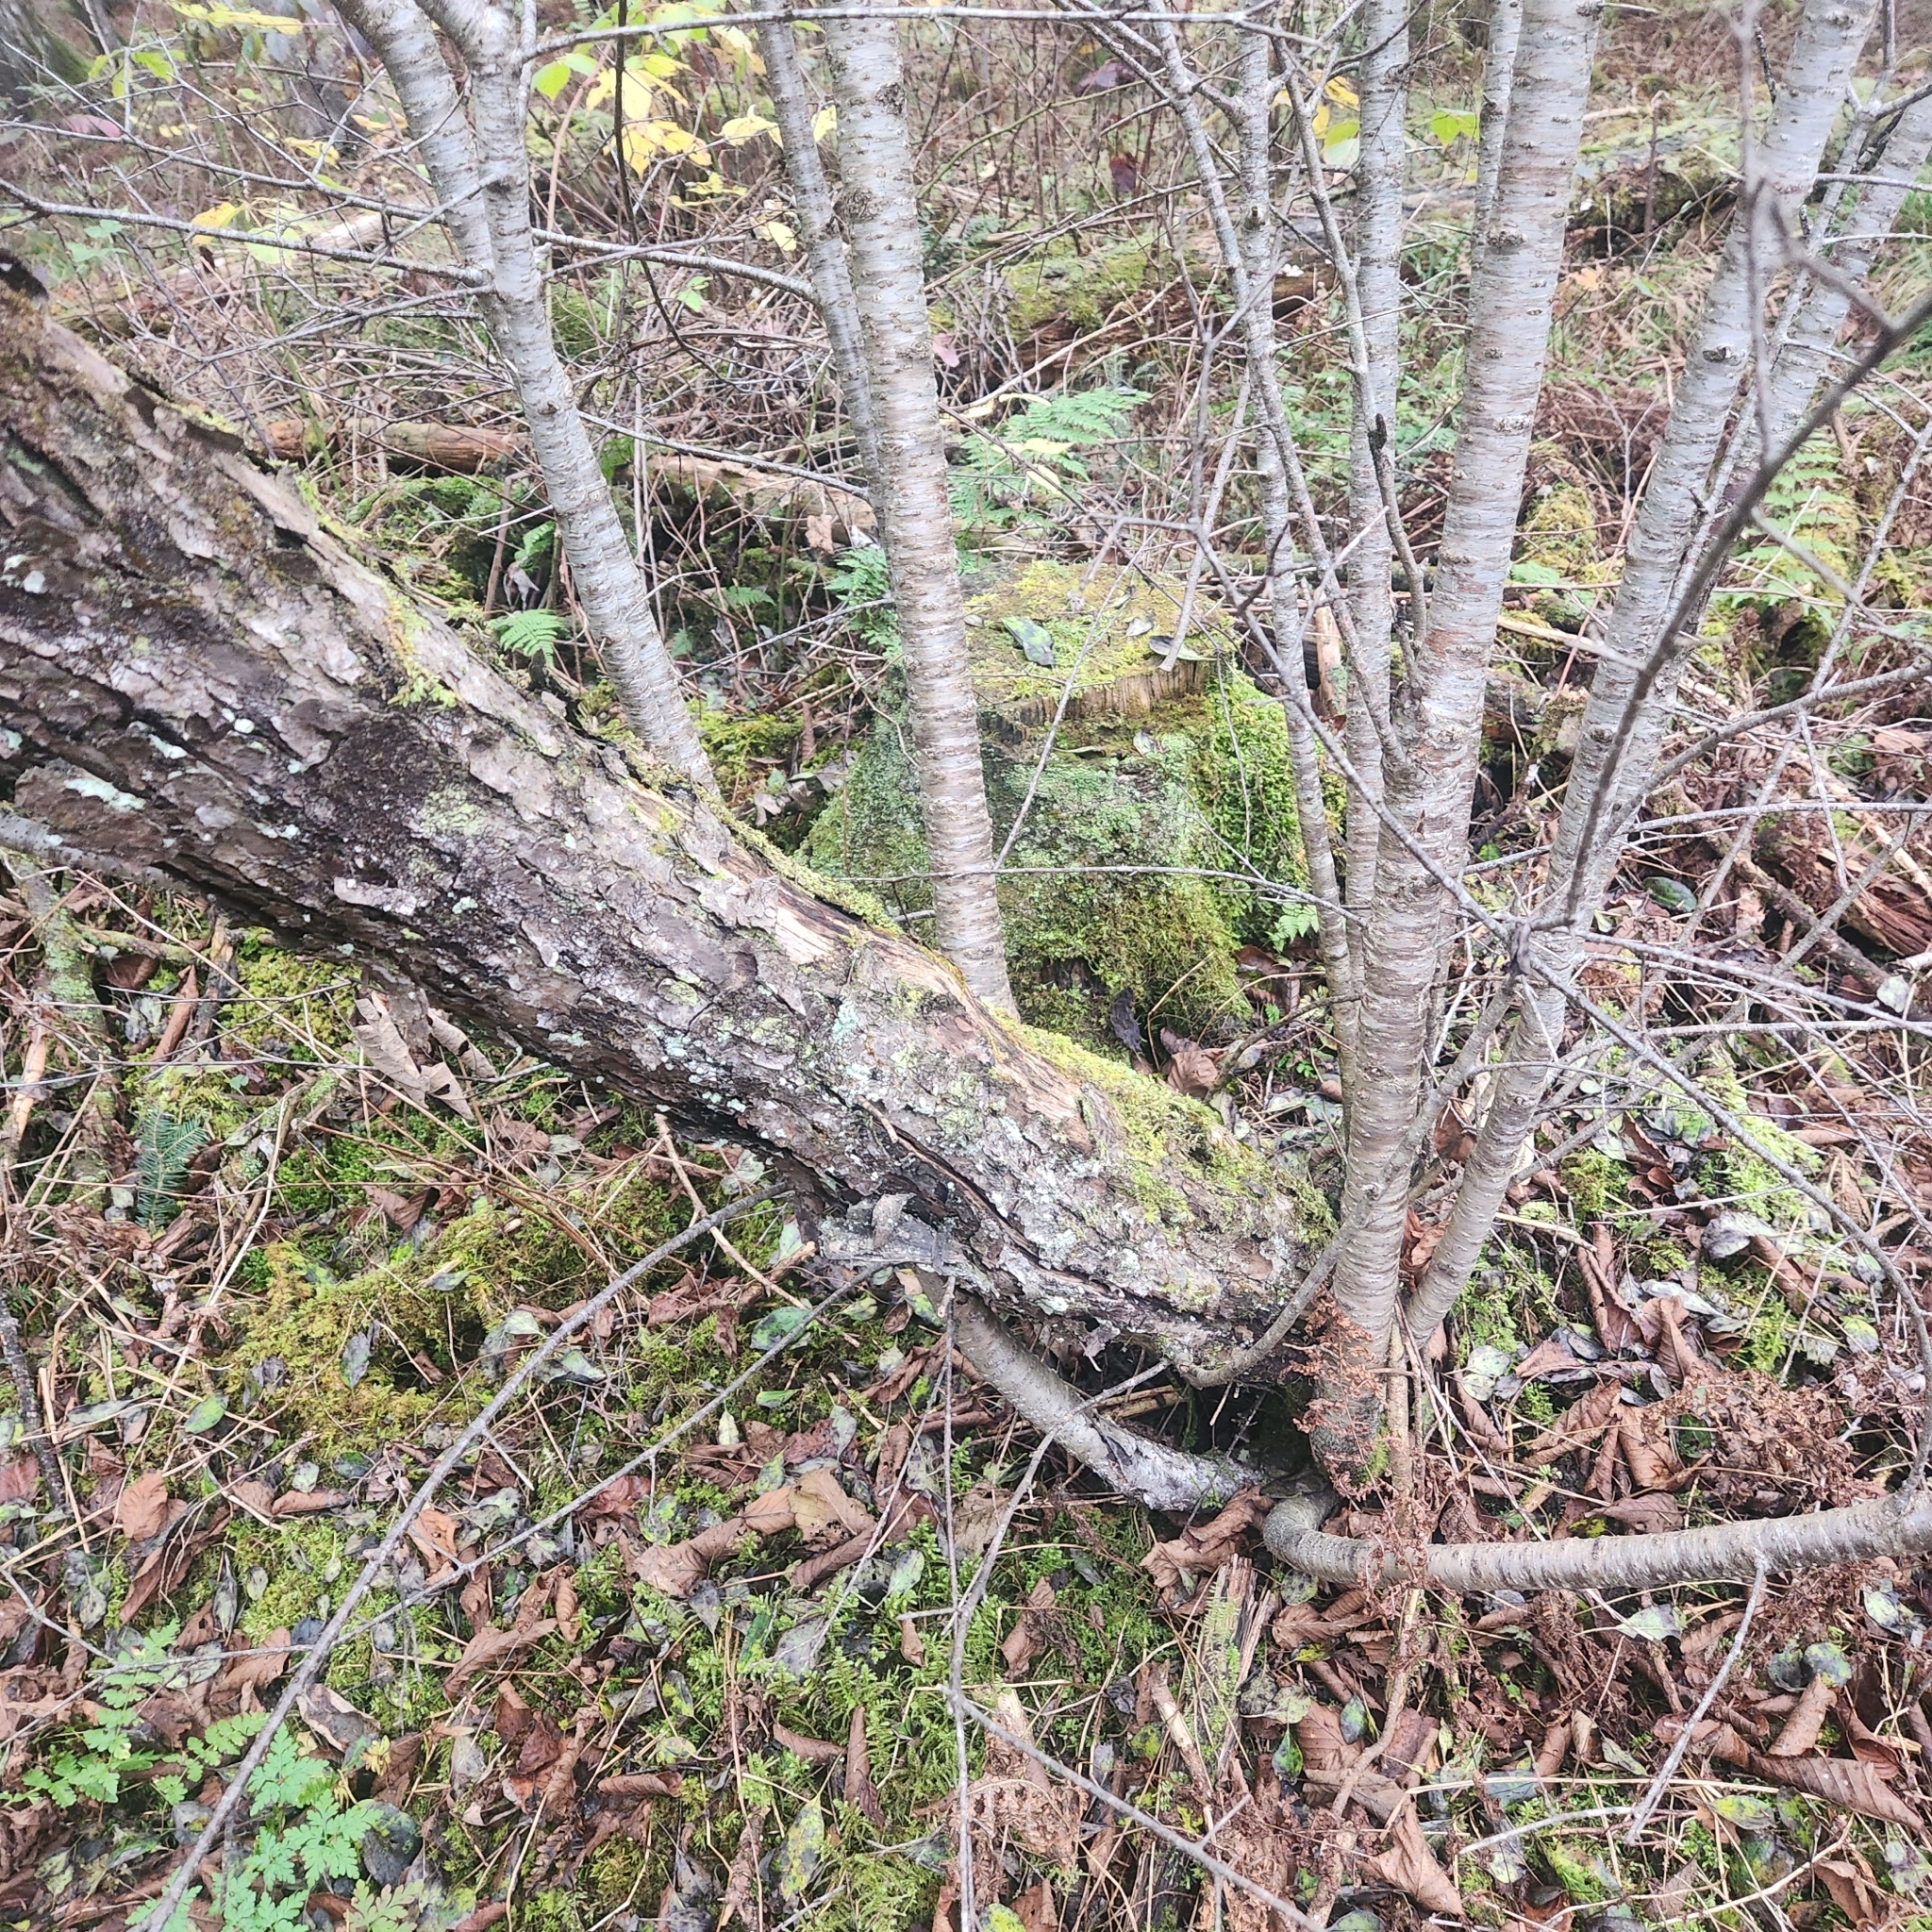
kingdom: Plantae
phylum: Tracheophyta
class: Magnoliopsida
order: Rosales
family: Rhamnaceae
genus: Rhamnus
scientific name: Rhamnus cathartica
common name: Common buckthorn
